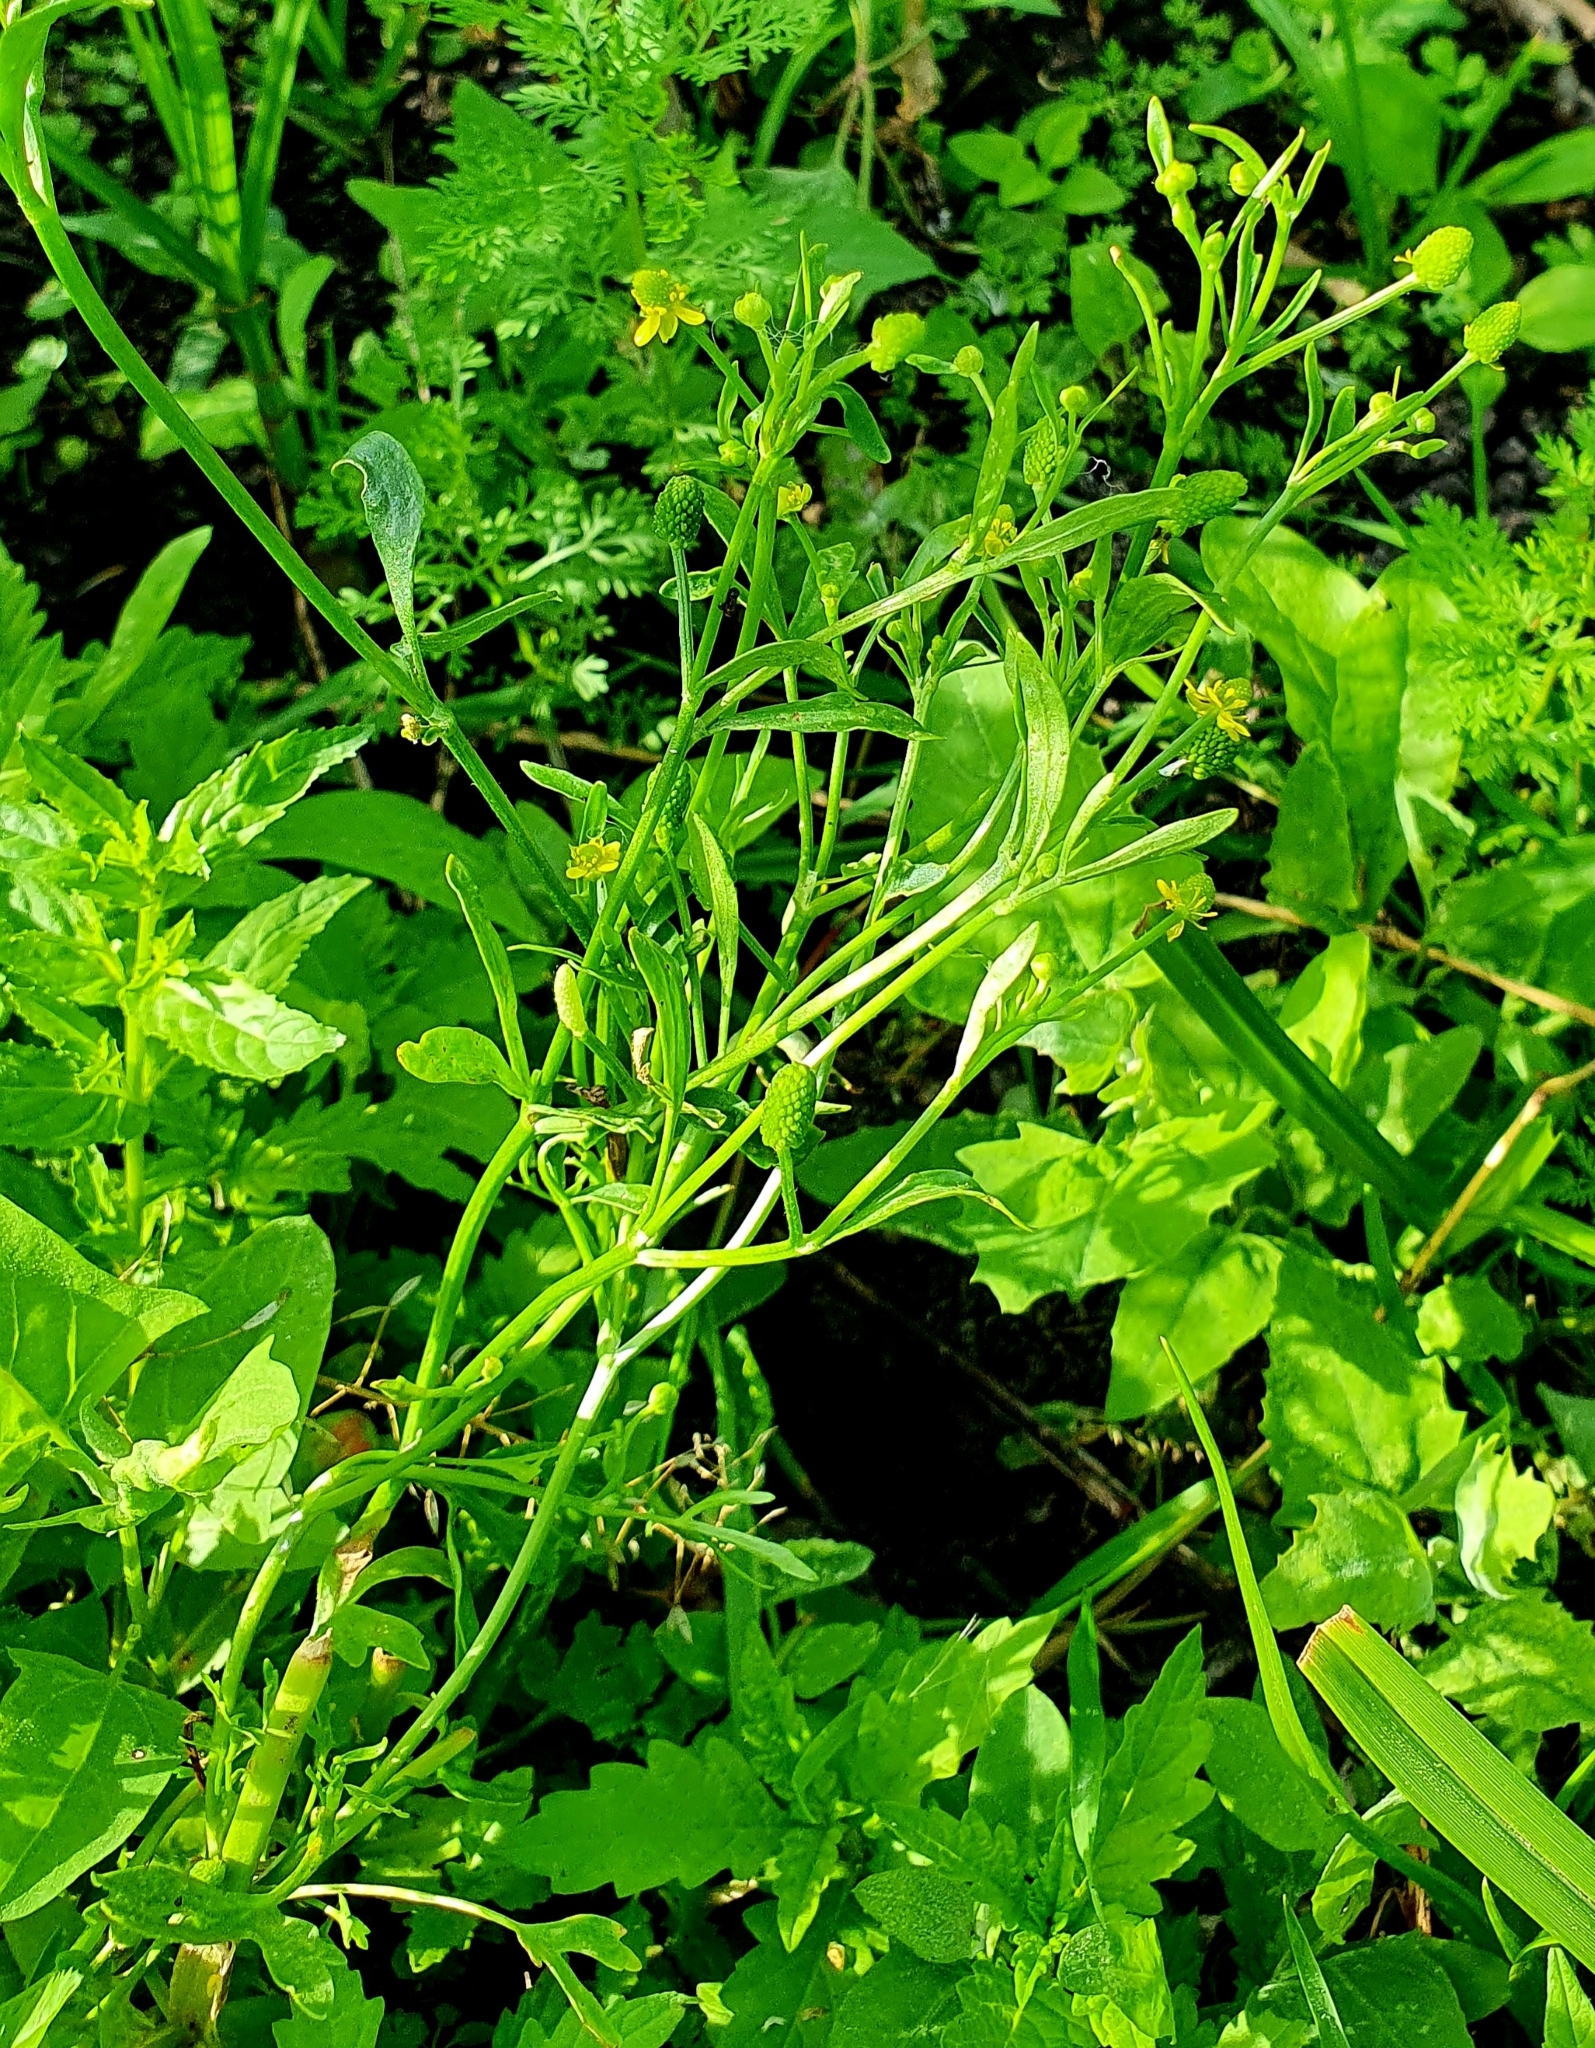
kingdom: Plantae
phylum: Tracheophyta
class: Magnoliopsida
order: Ranunculales
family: Ranunculaceae
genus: Ranunculus
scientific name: Ranunculus sceleratus
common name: Celery-leaved buttercup
